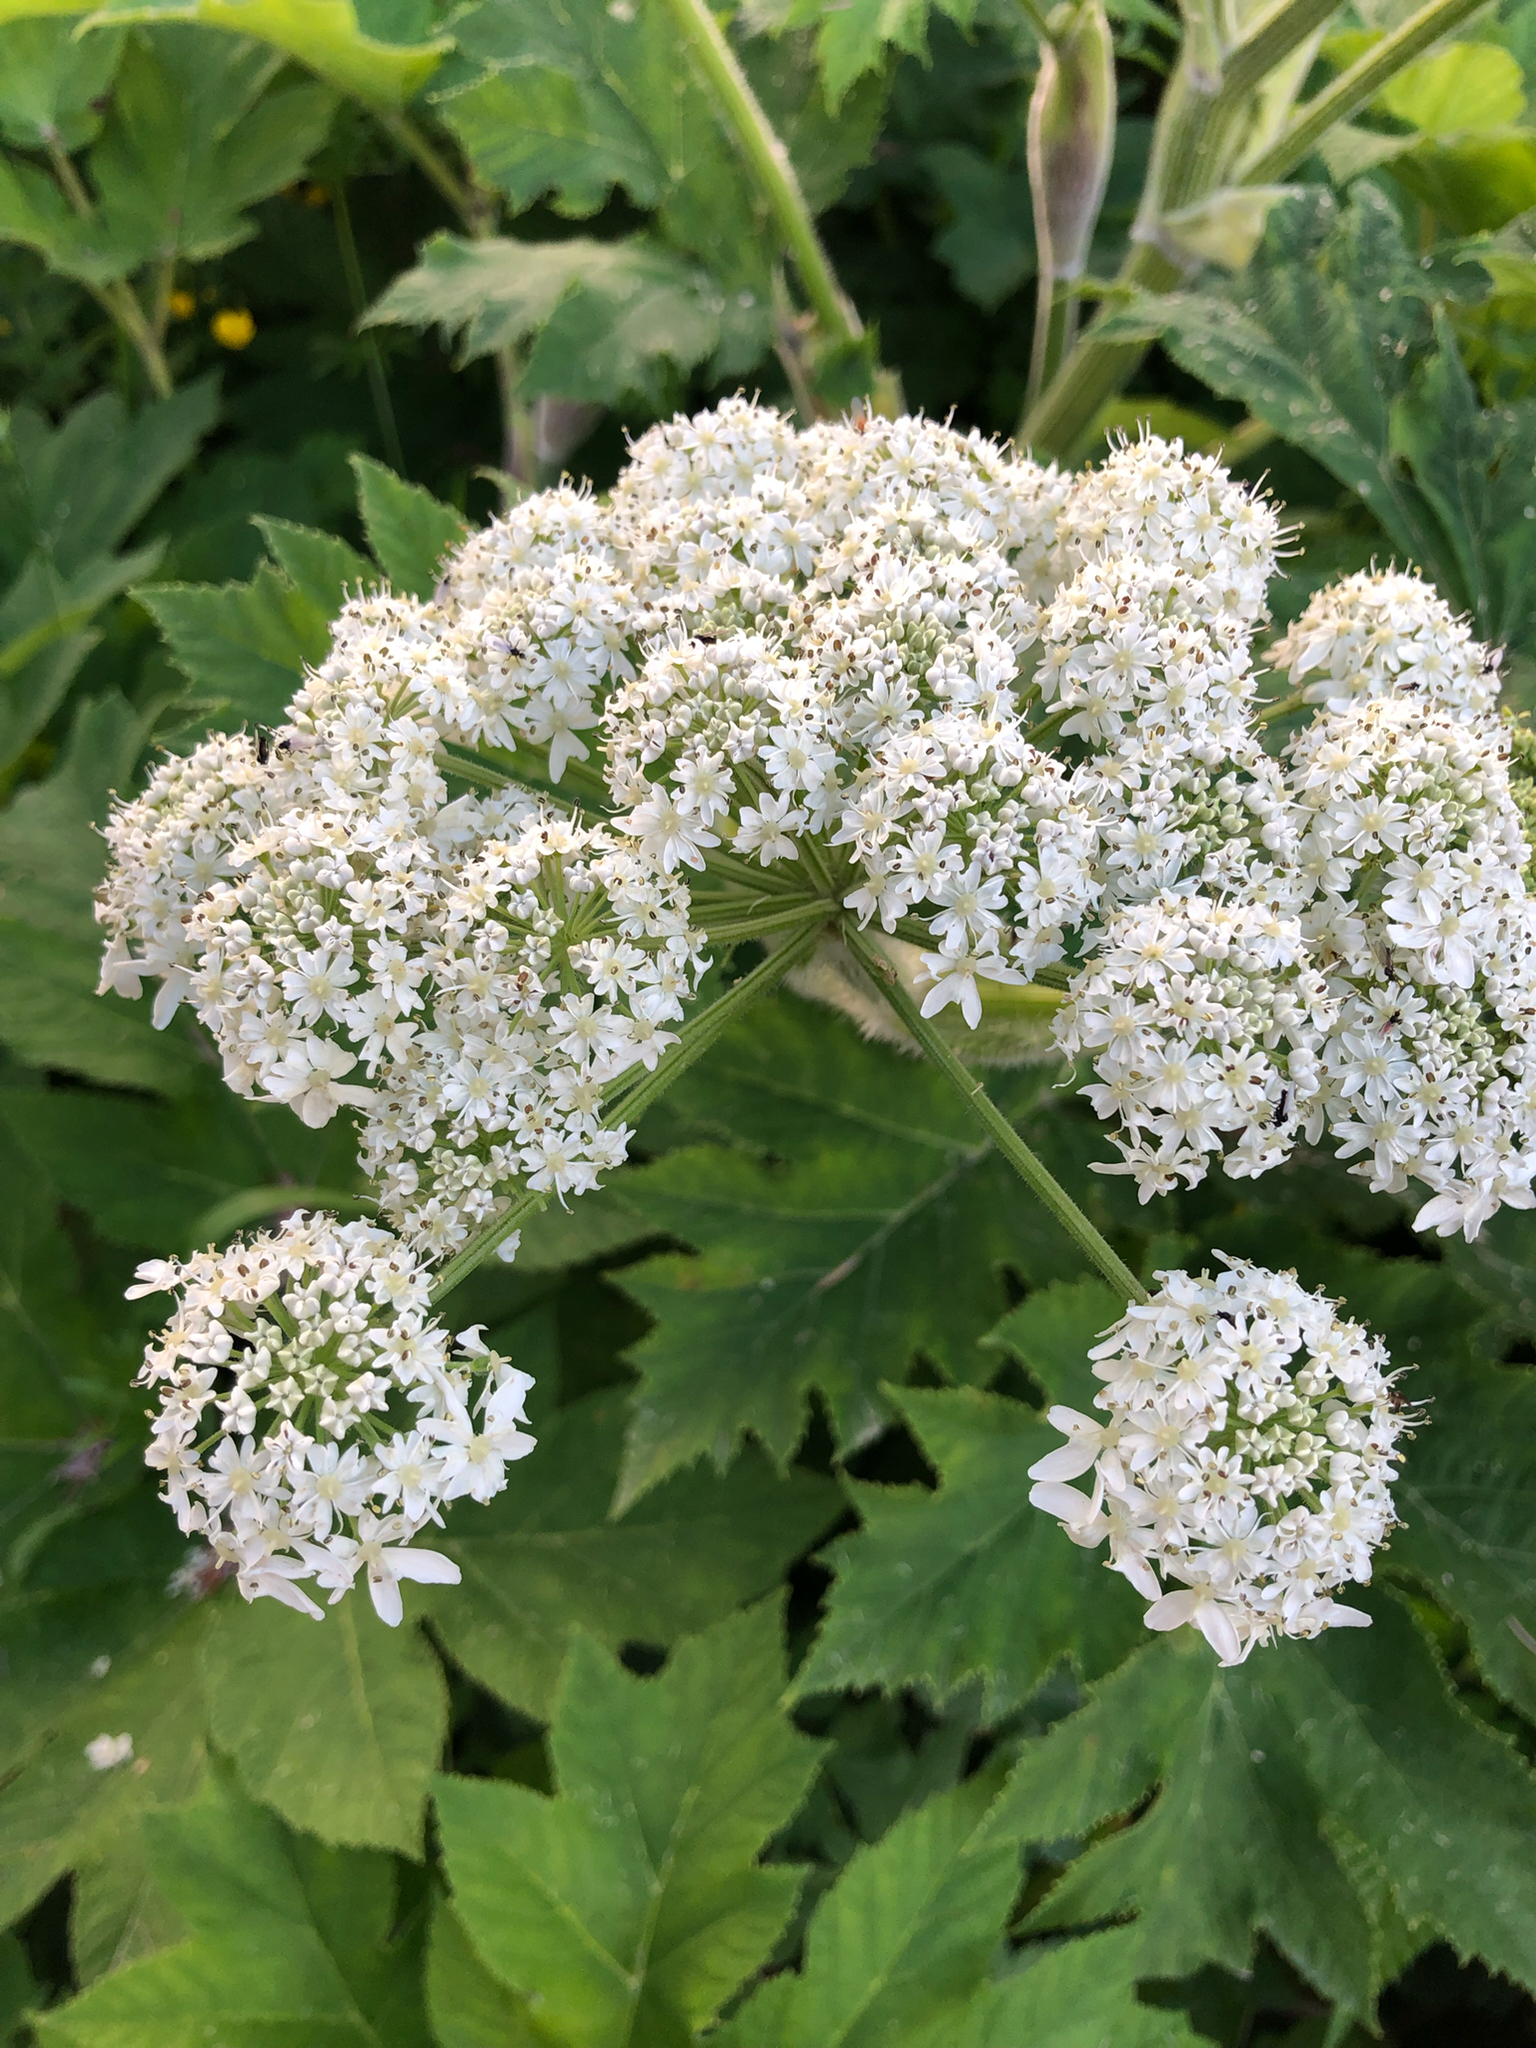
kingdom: Plantae
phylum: Tracheophyta
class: Magnoliopsida
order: Apiales
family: Apiaceae
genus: Heracleum
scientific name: Heracleum maximum
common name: American cow parsnip
